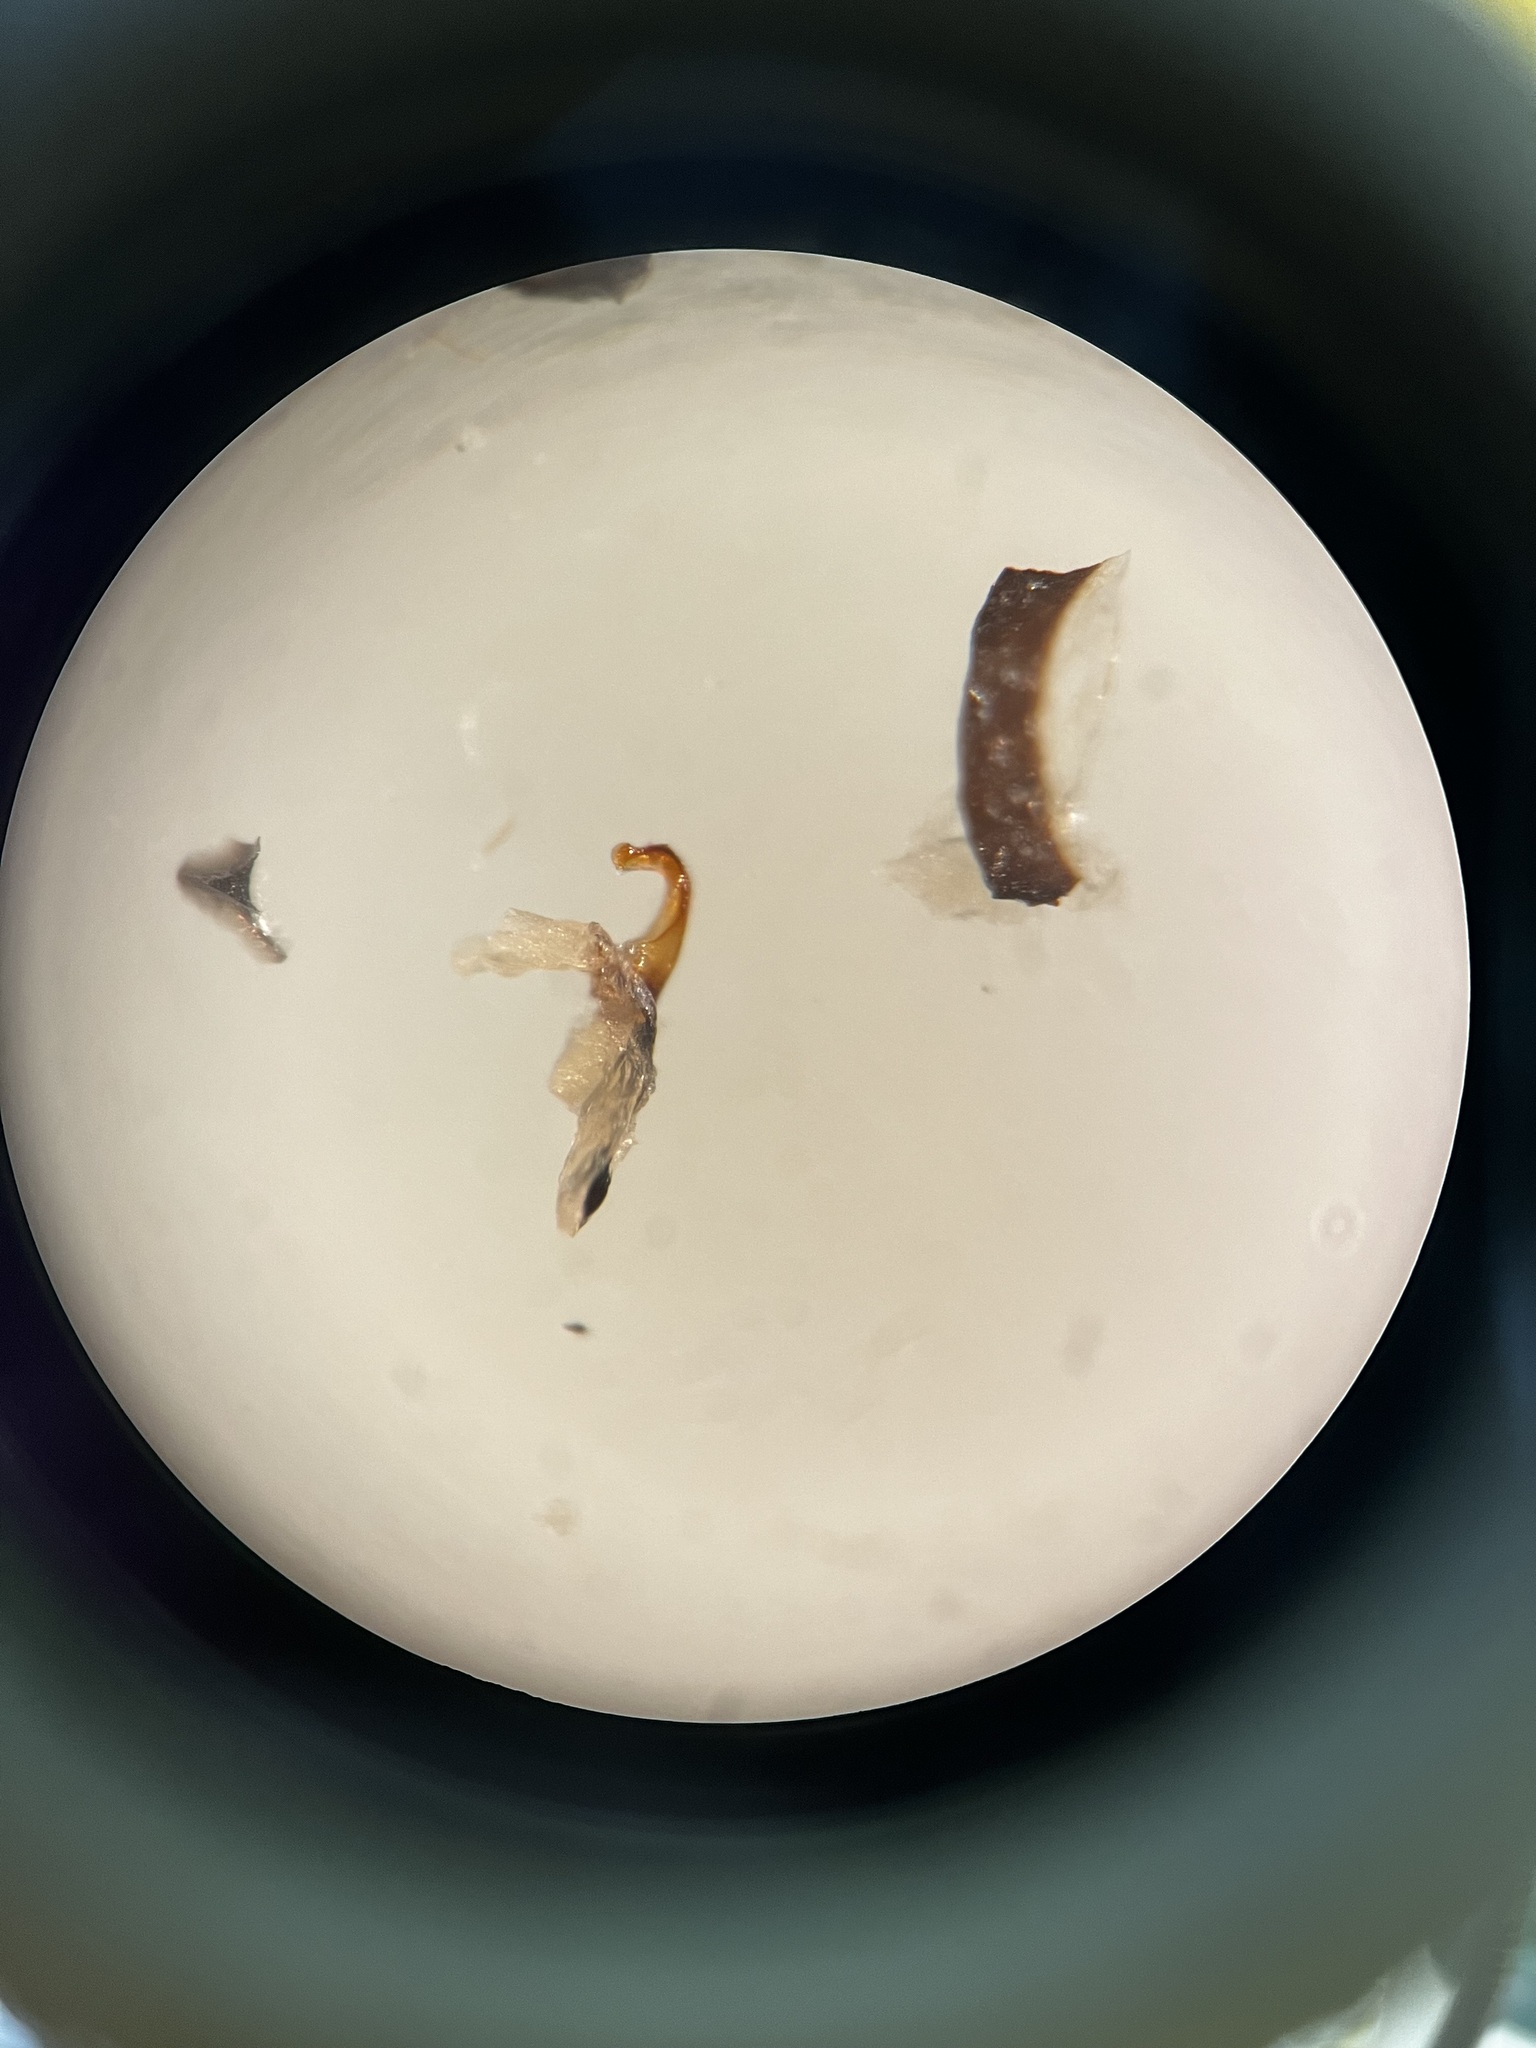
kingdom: Animalia
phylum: Arthropoda
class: Insecta
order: Hemiptera
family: Cicadellidae
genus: Deltocephalus
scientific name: Deltocephalus pulicaris
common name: Leafhopper
